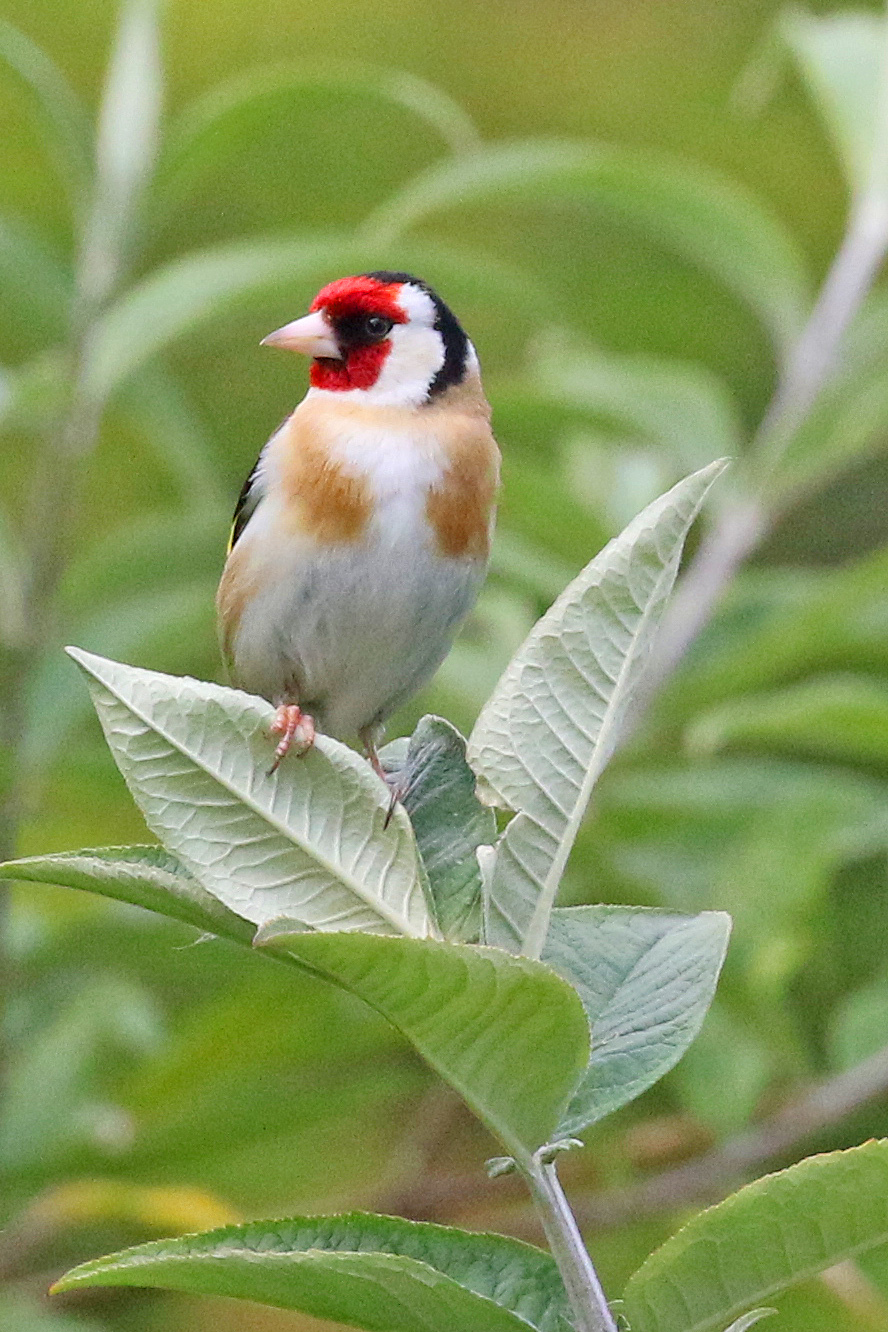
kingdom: Animalia
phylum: Chordata
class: Aves
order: Passeriformes
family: Fringillidae
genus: Carduelis
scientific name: Carduelis carduelis
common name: European goldfinch
